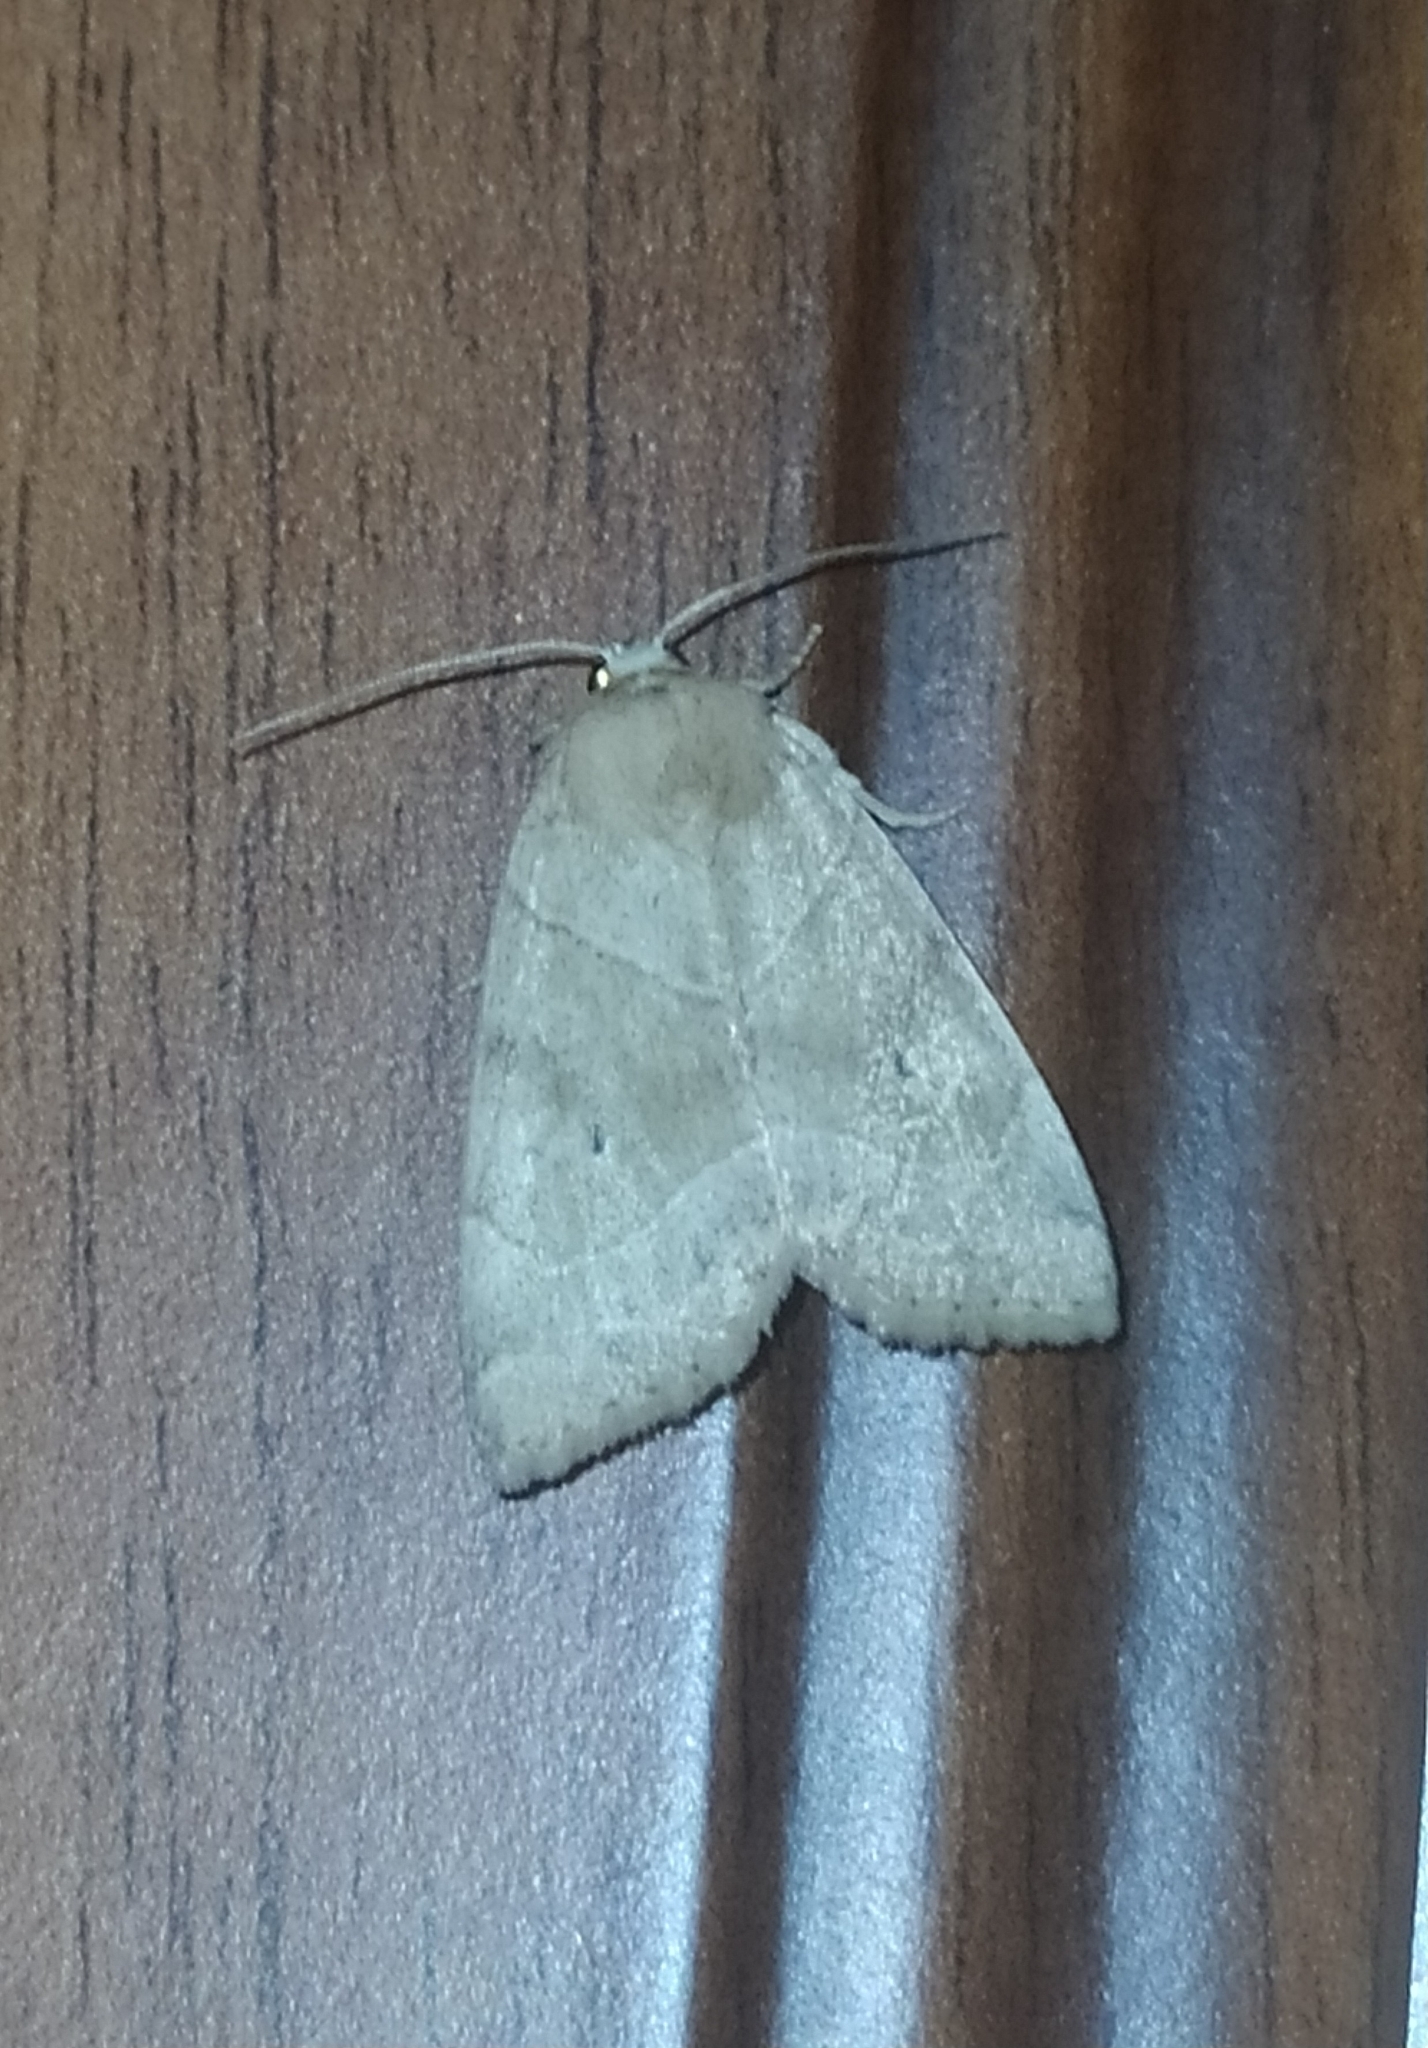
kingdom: Animalia
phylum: Arthropoda
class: Insecta
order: Lepidoptera
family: Noctuidae
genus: Cosmia
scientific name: Cosmia trapezina
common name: Dun-bar
